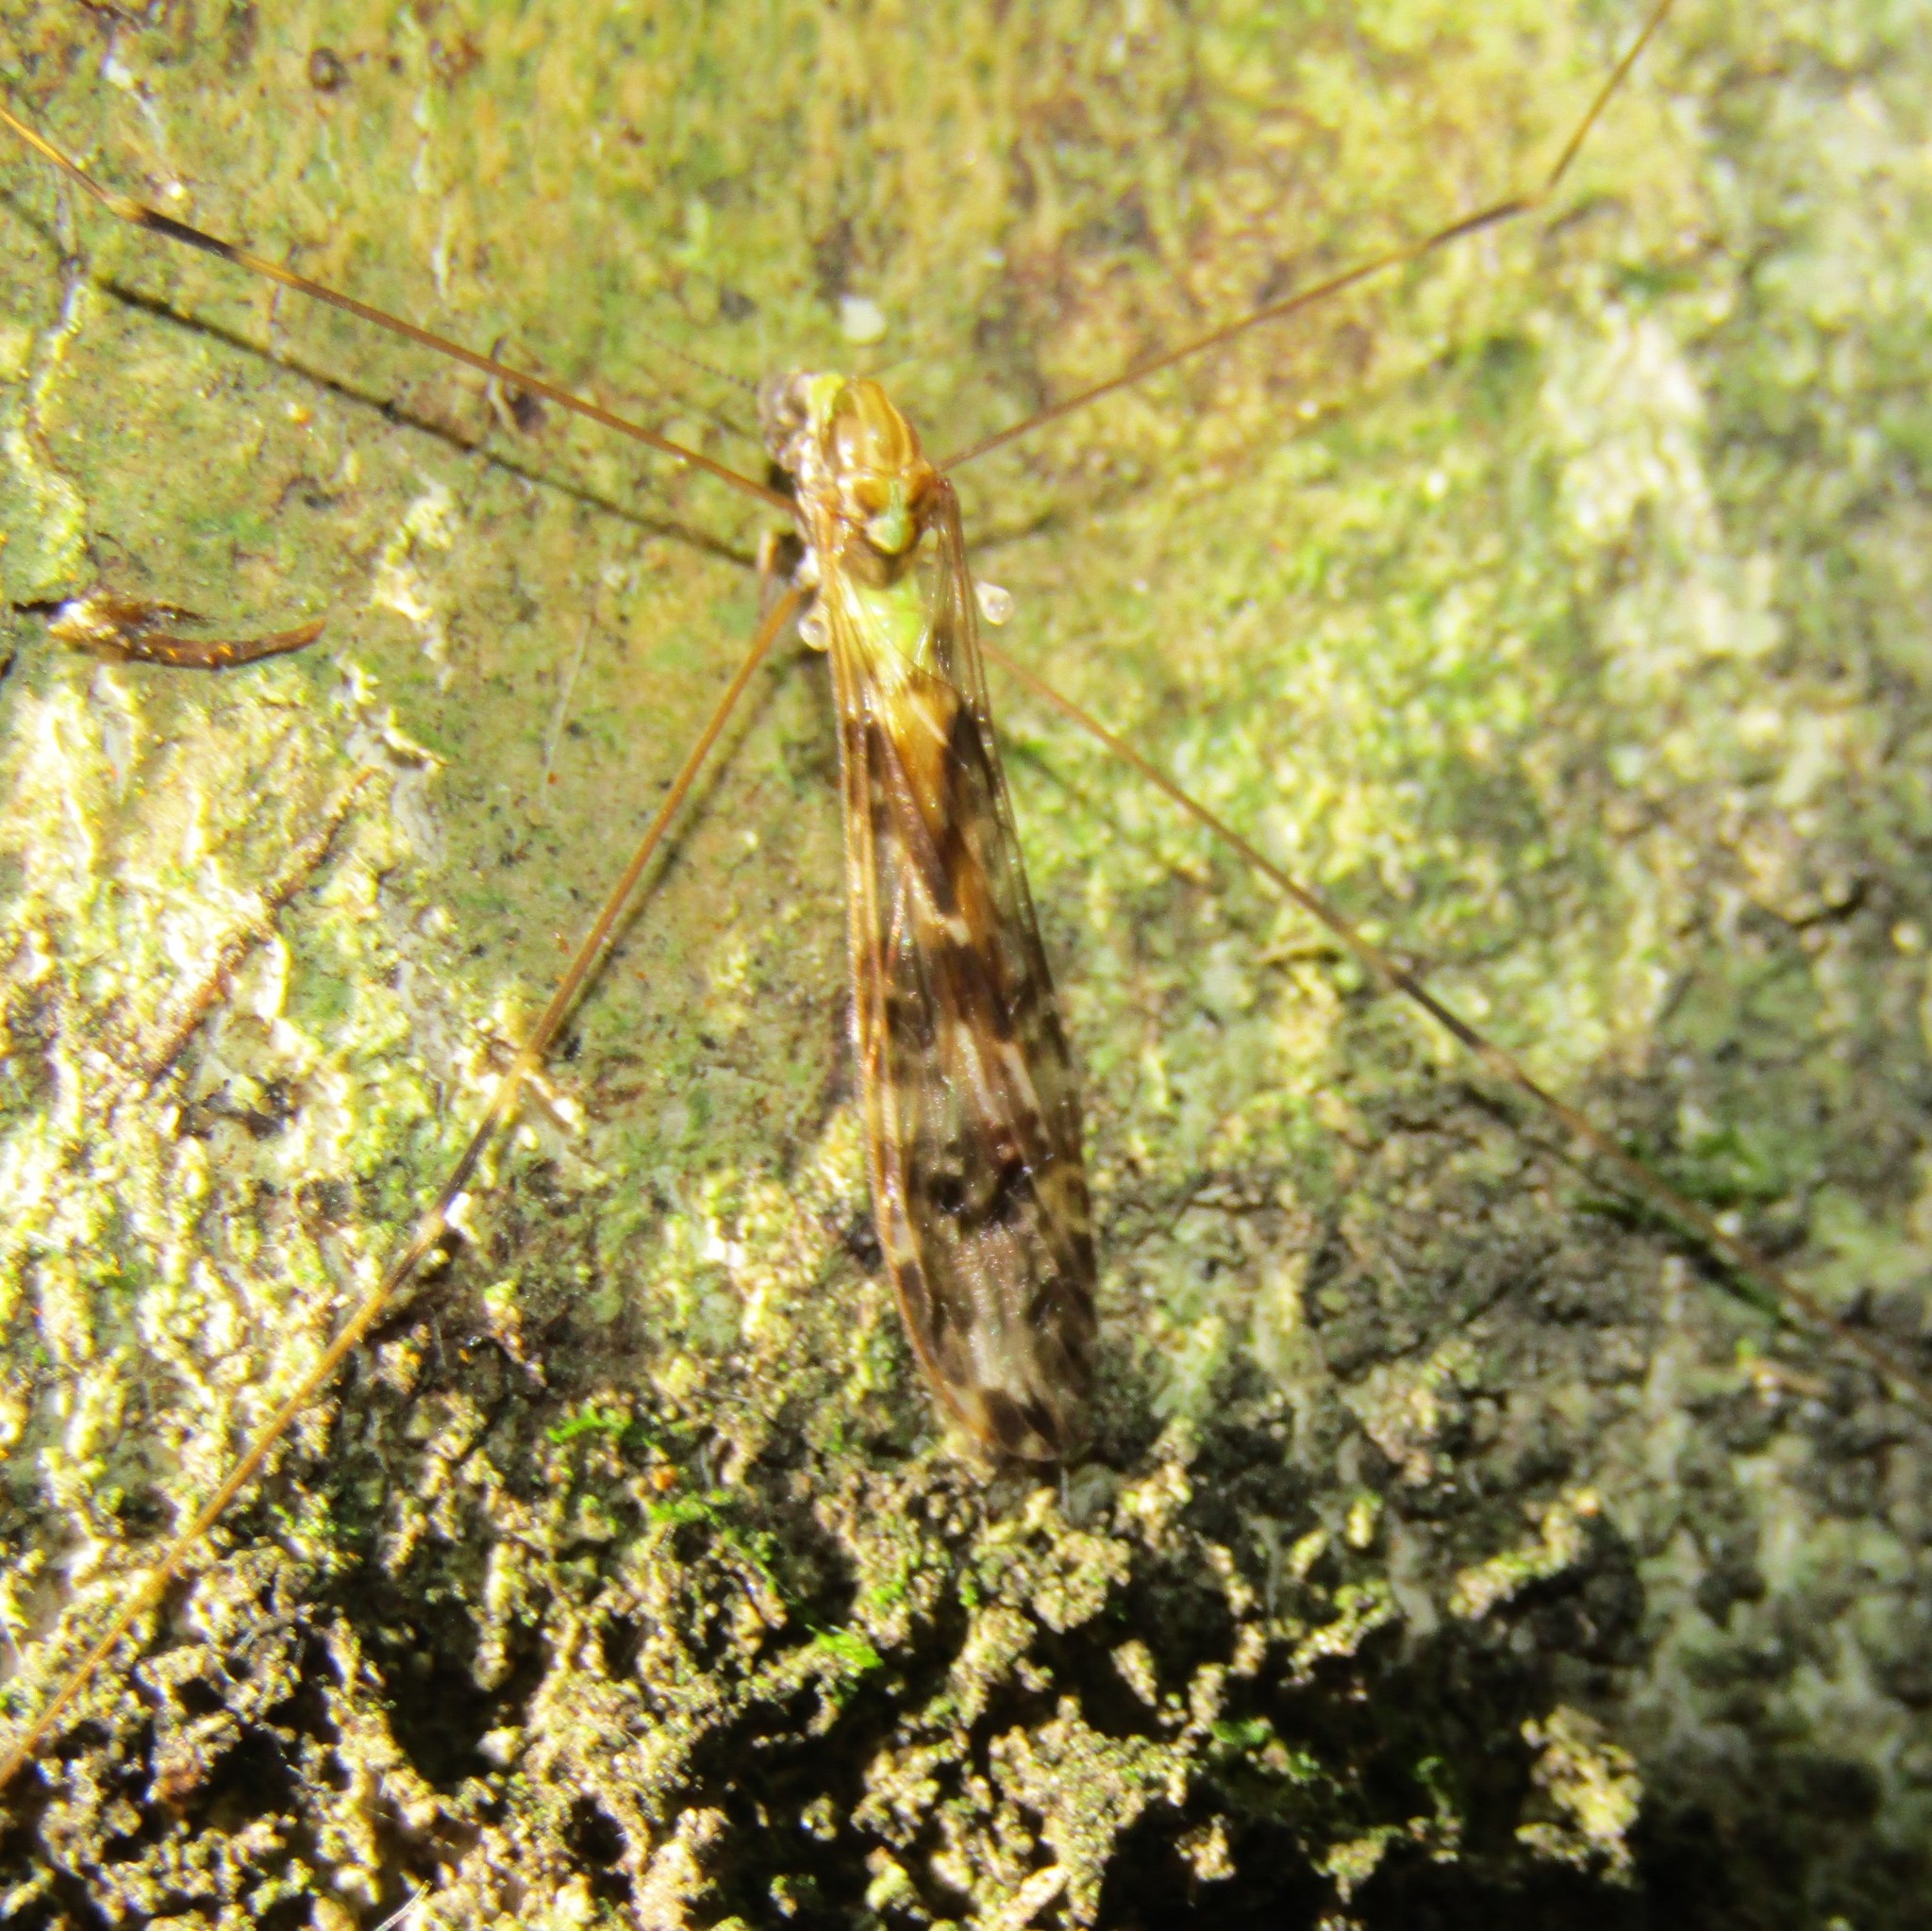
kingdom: Animalia
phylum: Arthropoda
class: Insecta
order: Diptera
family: Limoniidae
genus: Discobola
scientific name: Discobola dohrni
